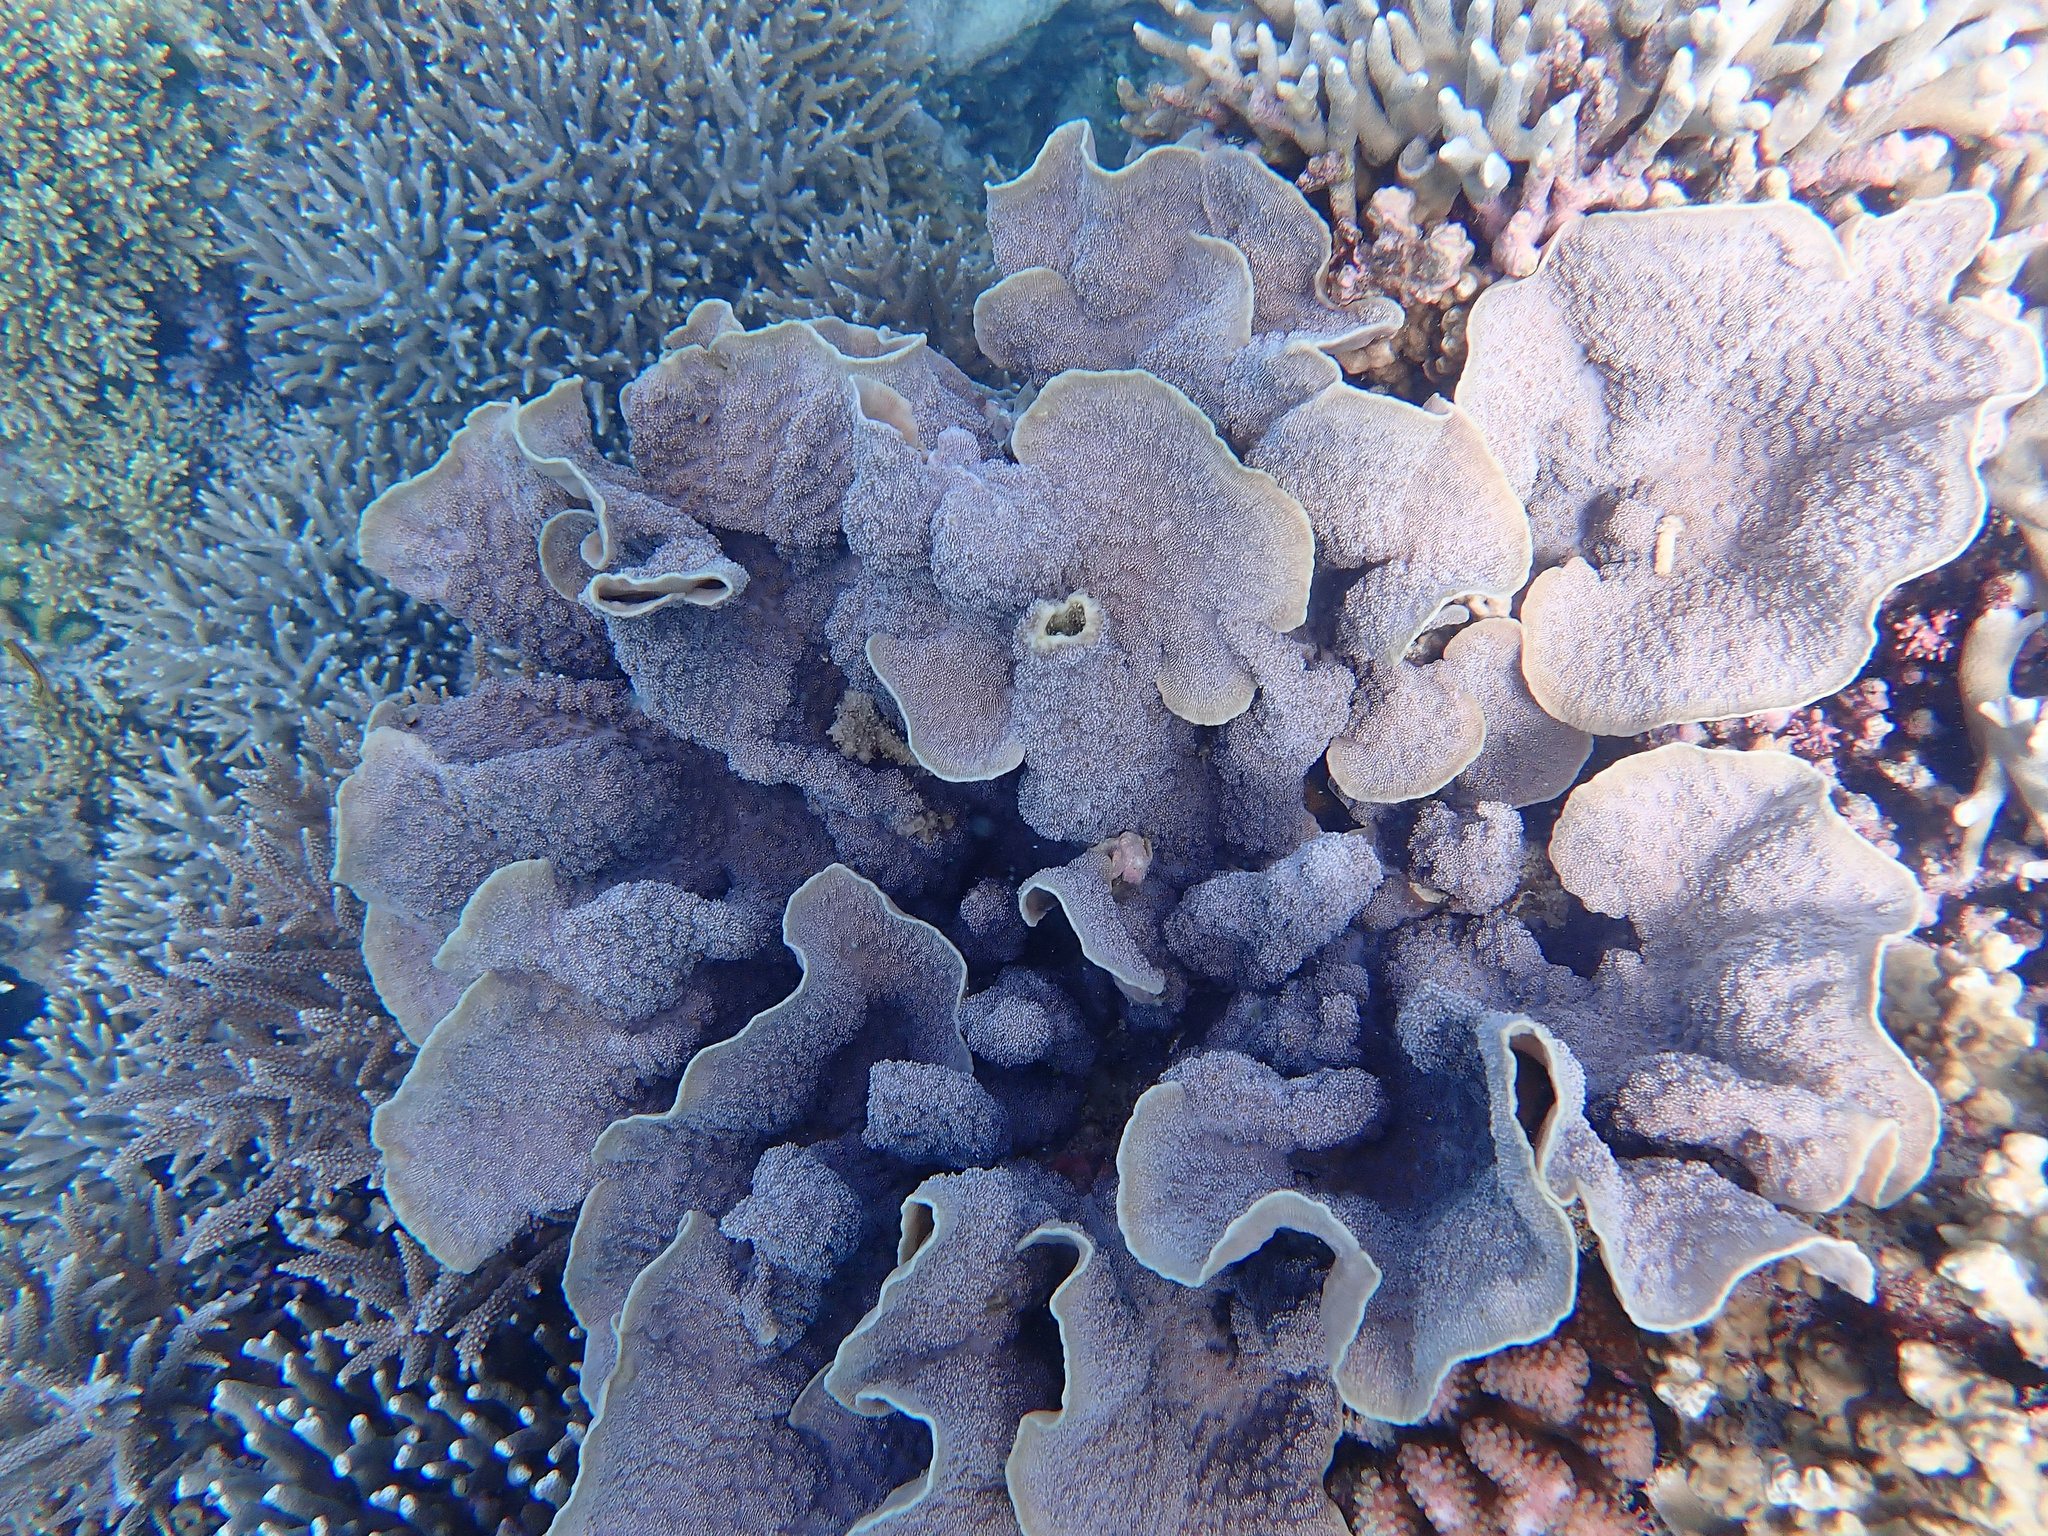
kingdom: Animalia
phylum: Cnidaria
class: Anthozoa
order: Scleractinia
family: Merulinidae
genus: Echinopora
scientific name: Echinopora lamellosa
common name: Hedgehog coral
